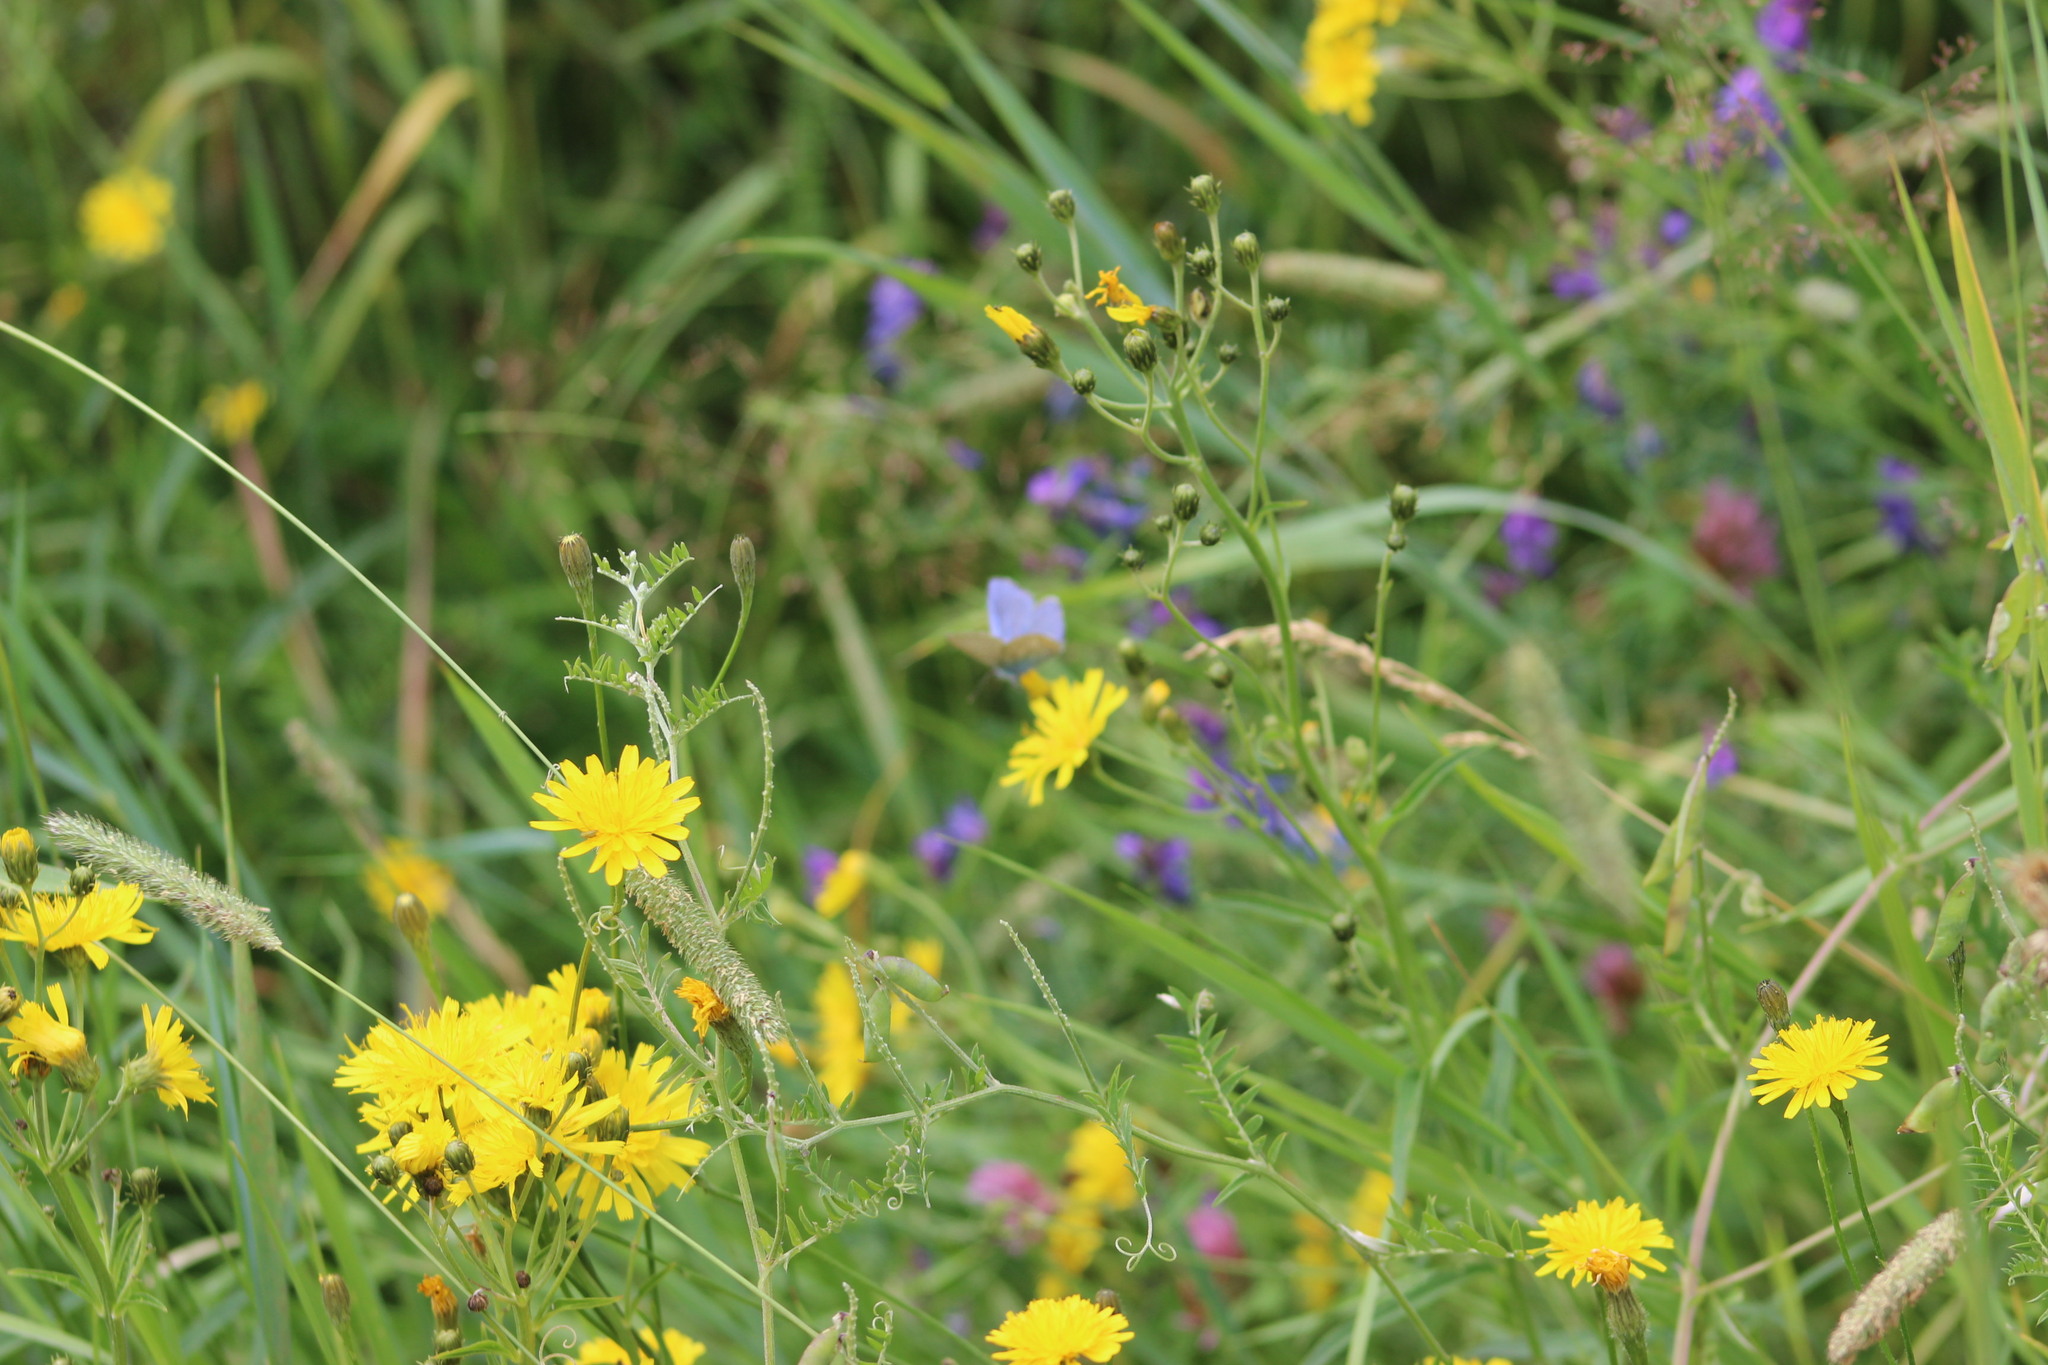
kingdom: Plantae
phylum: Tracheophyta
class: Magnoliopsida
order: Asterales
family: Asteraceae
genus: Hieracium
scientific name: Hieracium umbellatum
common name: Northern hawkweed
